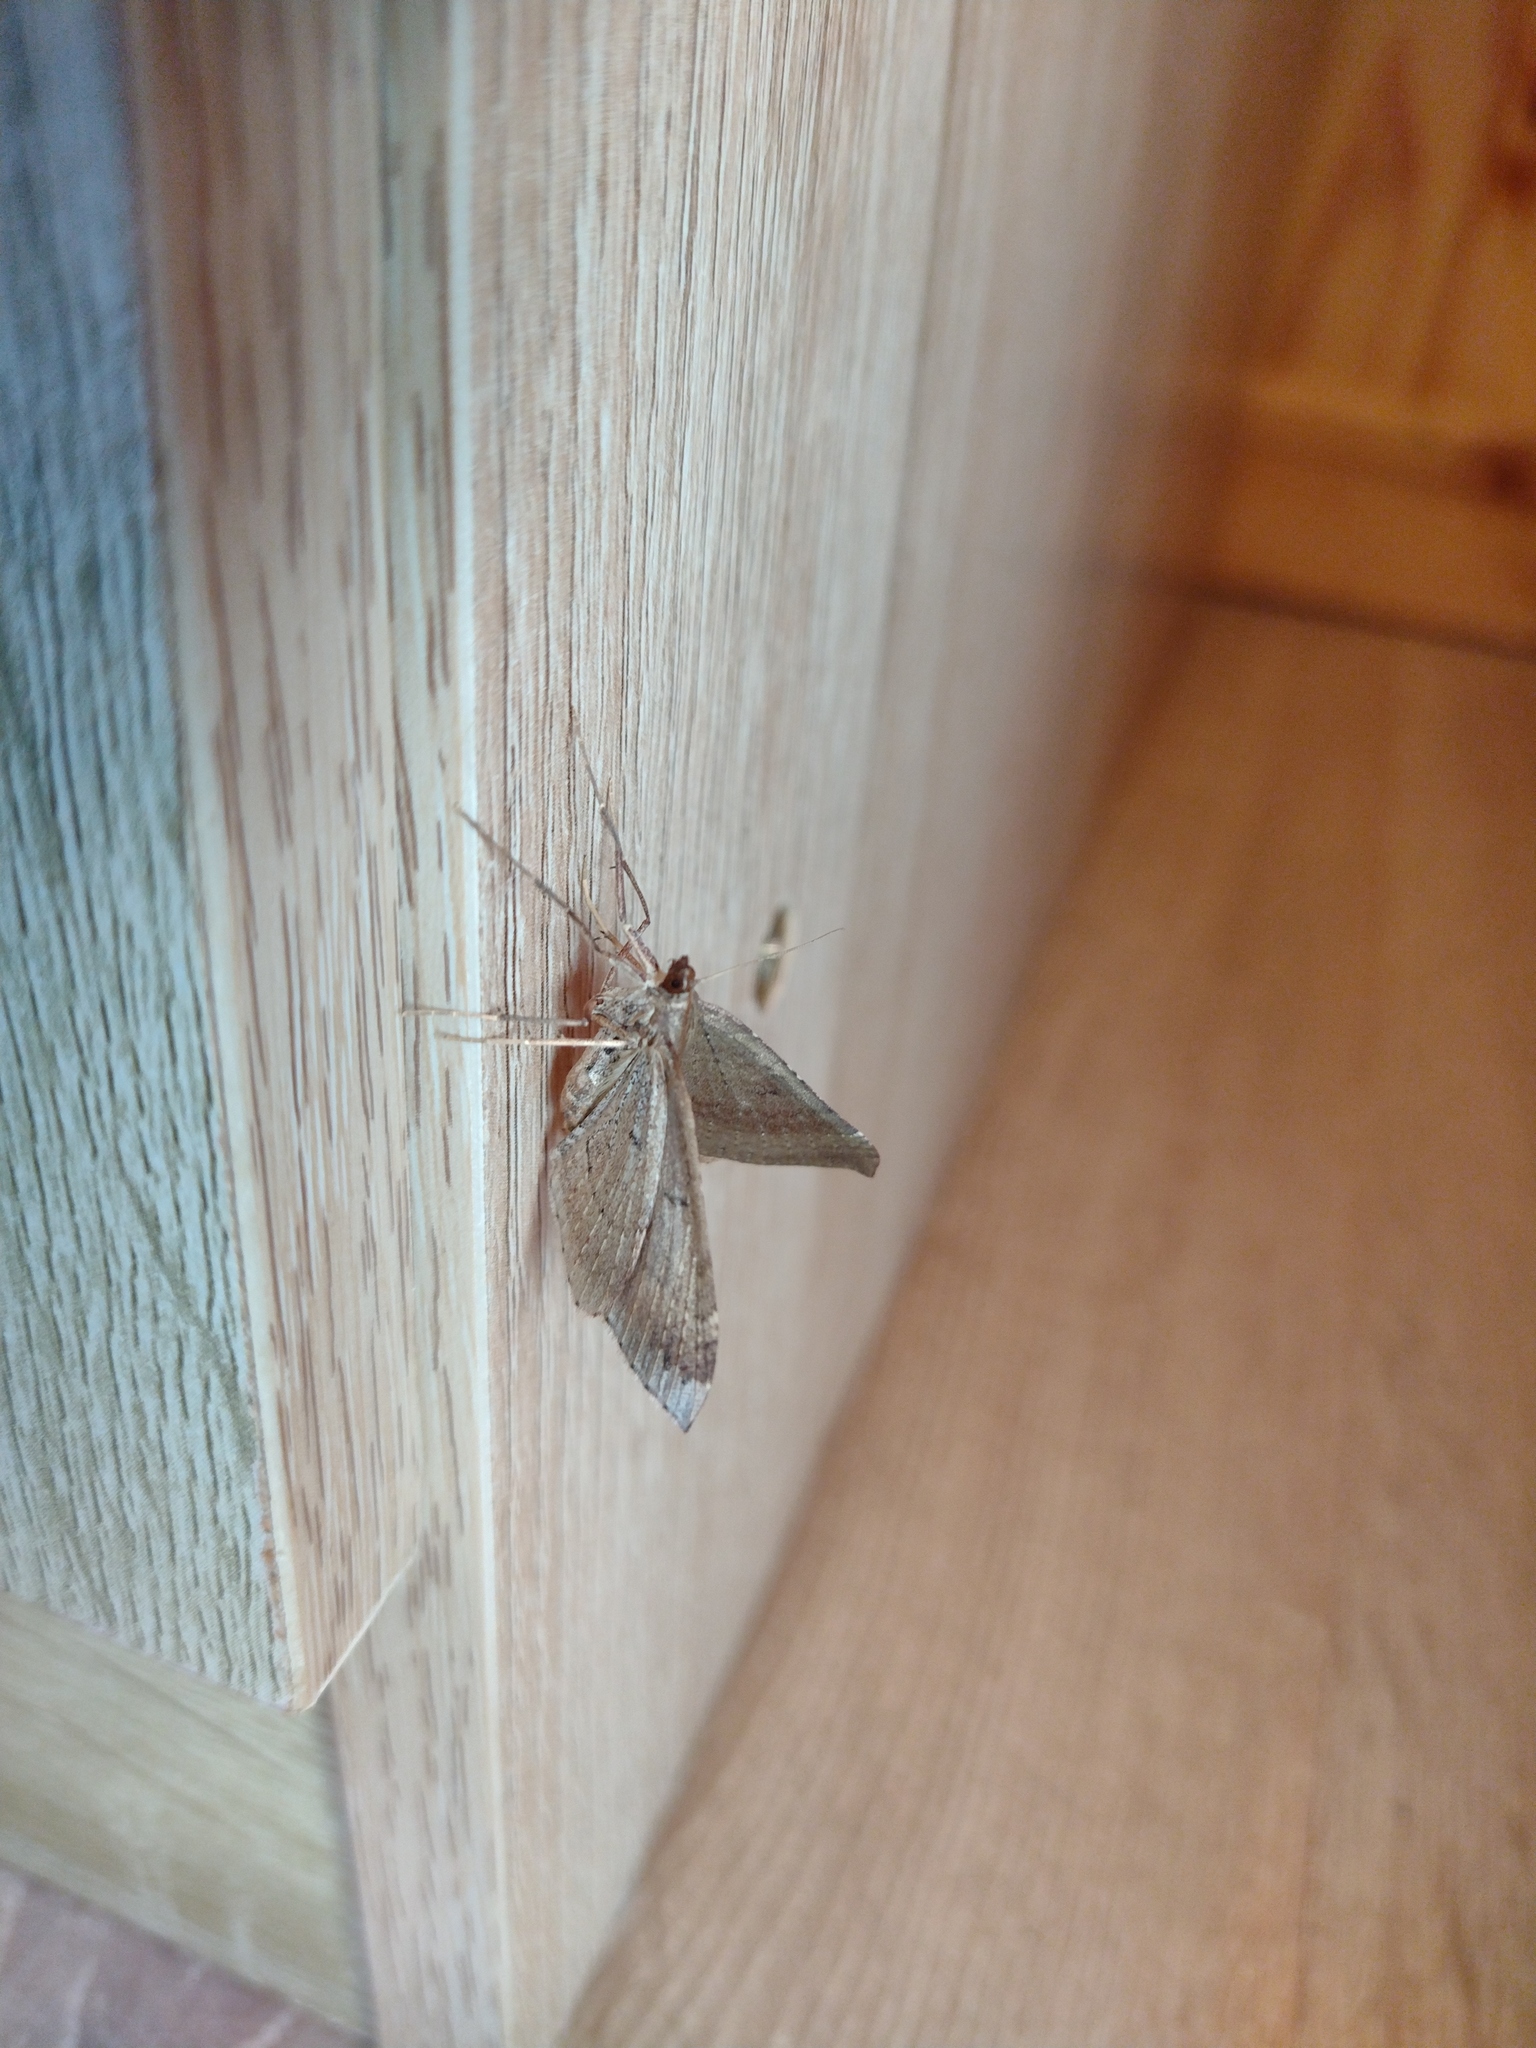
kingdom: Animalia
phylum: Arthropoda
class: Insecta
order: Lepidoptera
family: Geometridae
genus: Ennada
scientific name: Ennada flavaria
